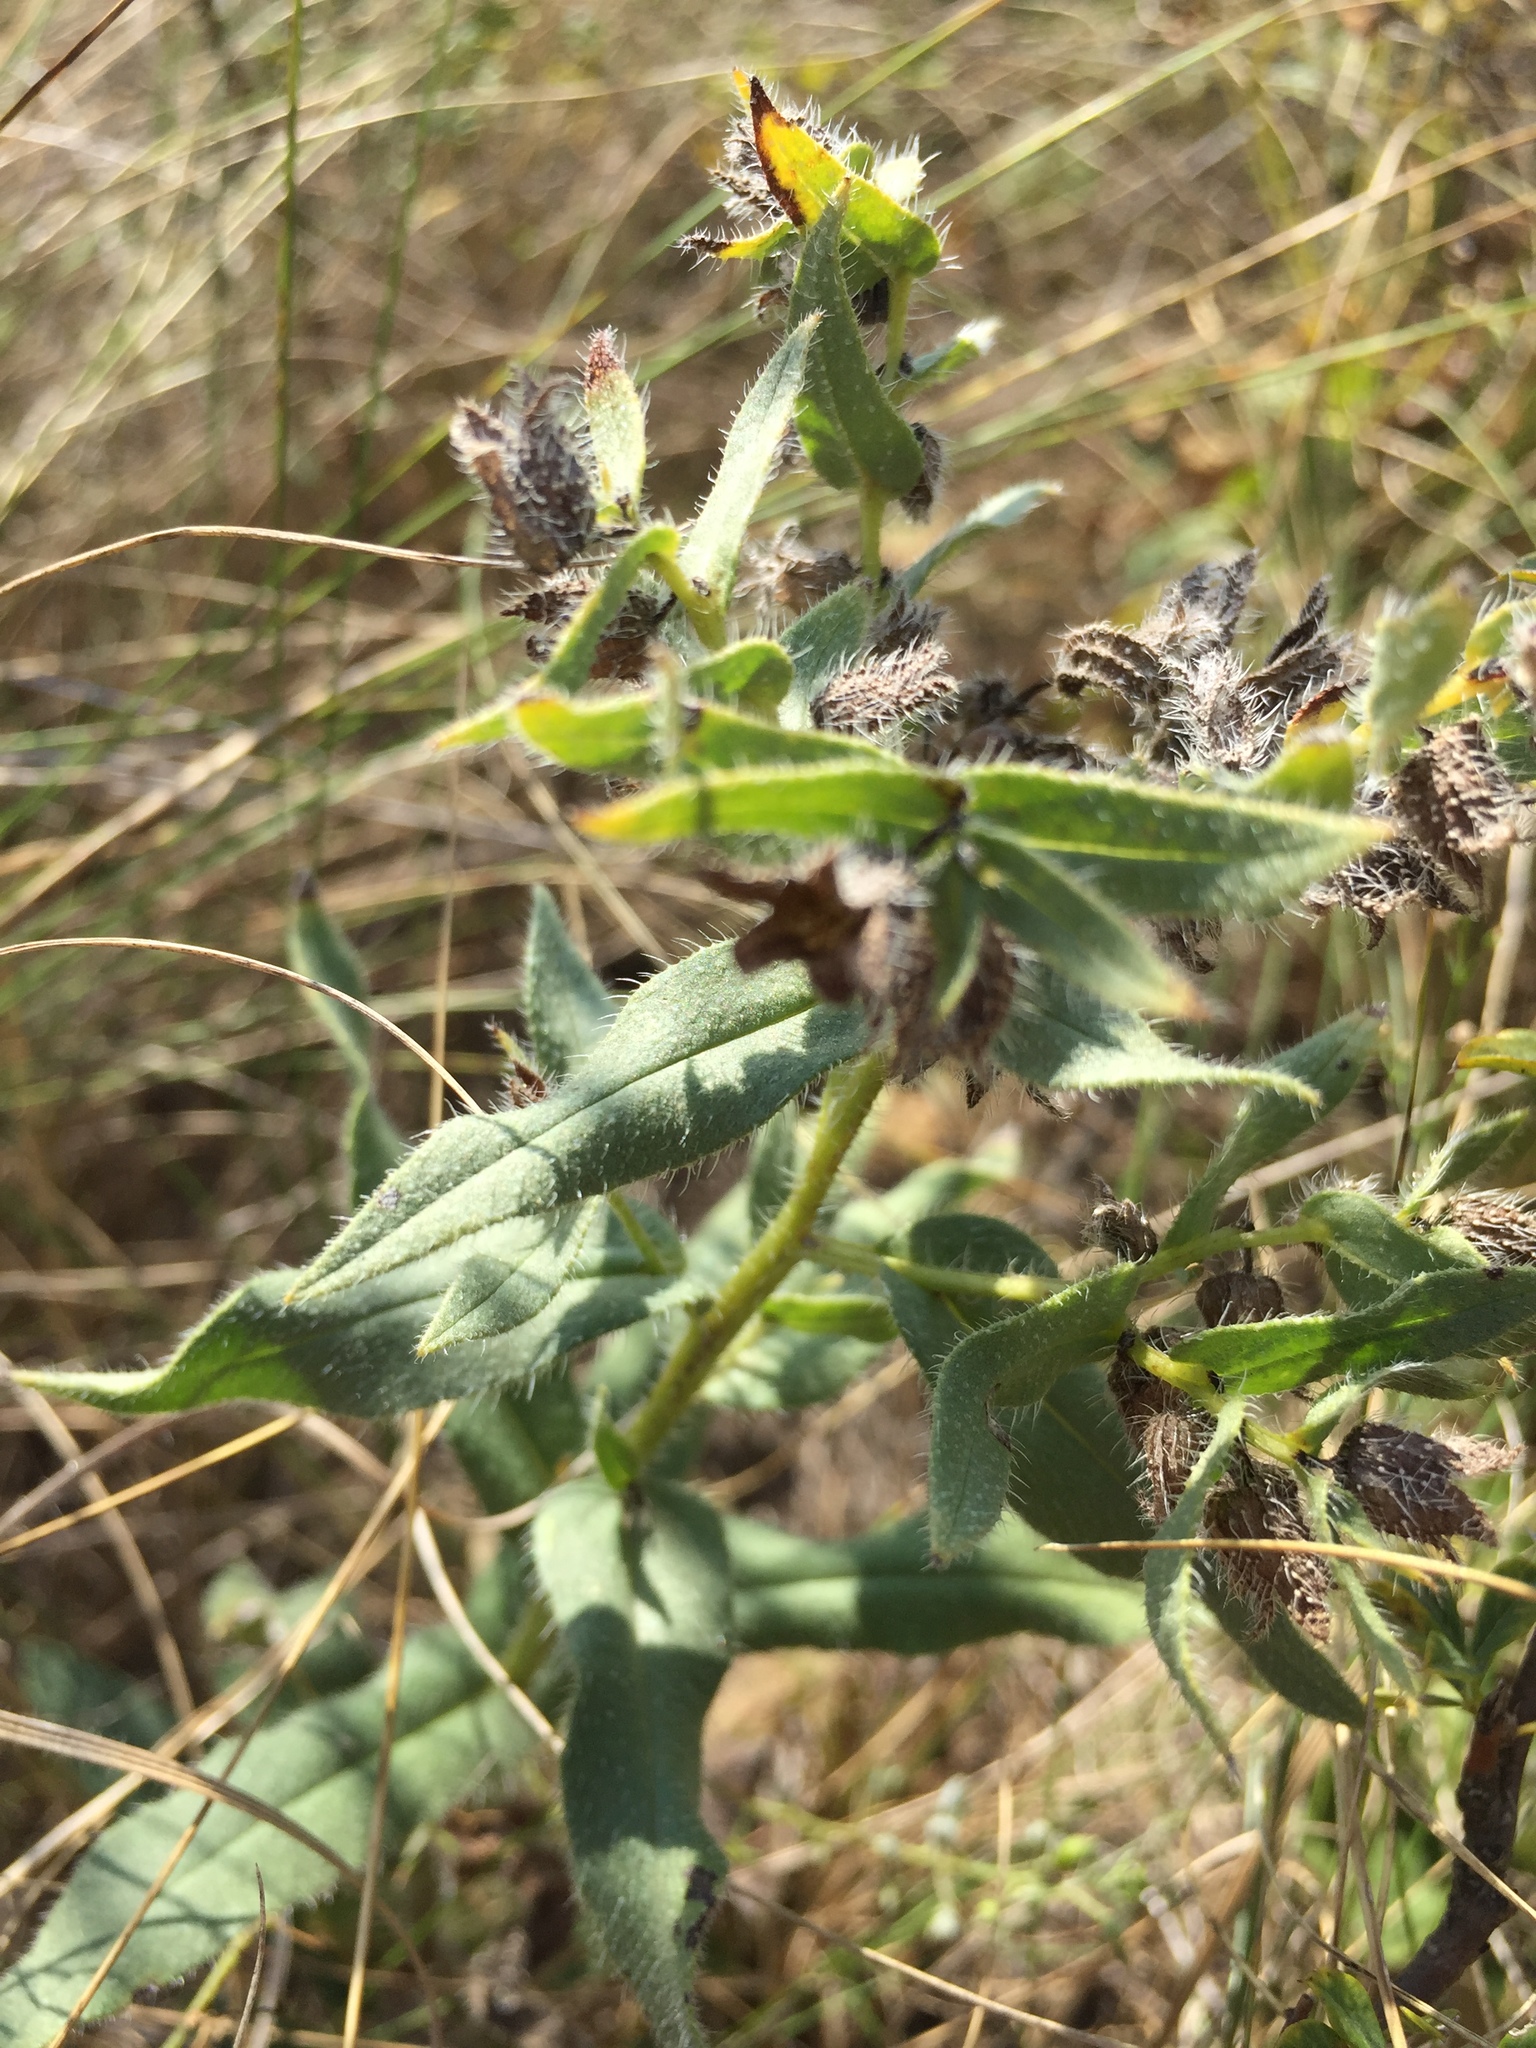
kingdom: Plantae
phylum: Tracheophyta
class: Magnoliopsida
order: Boraginales
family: Boraginaceae
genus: Nonea
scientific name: Nonea pulla
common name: Brown nonea
